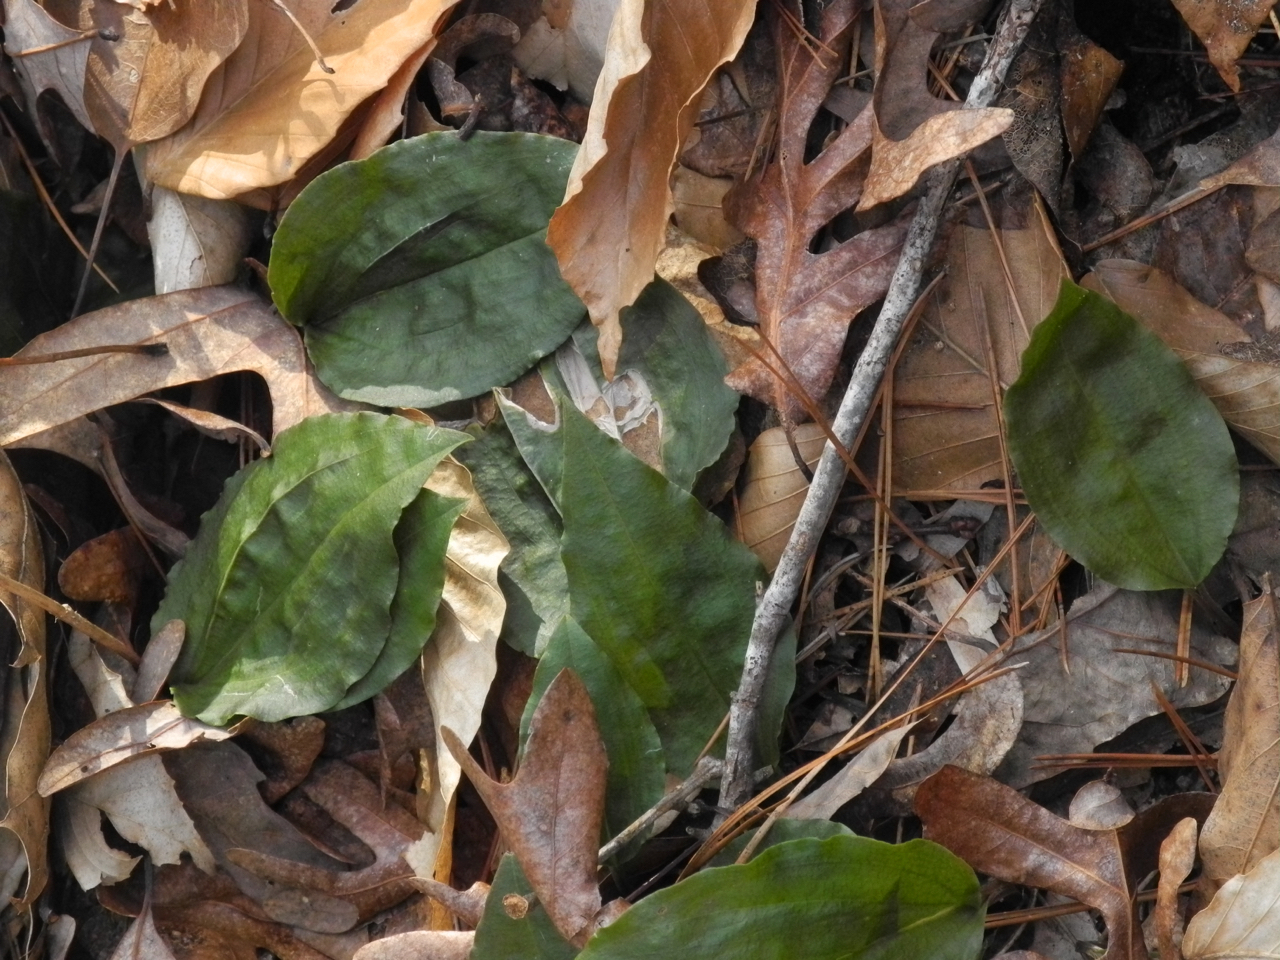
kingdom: Plantae
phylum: Tracheophyta
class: Liliopsida
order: Asparagales
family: Orchidaceae
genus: Tipularia
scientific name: Tipularia discolor
